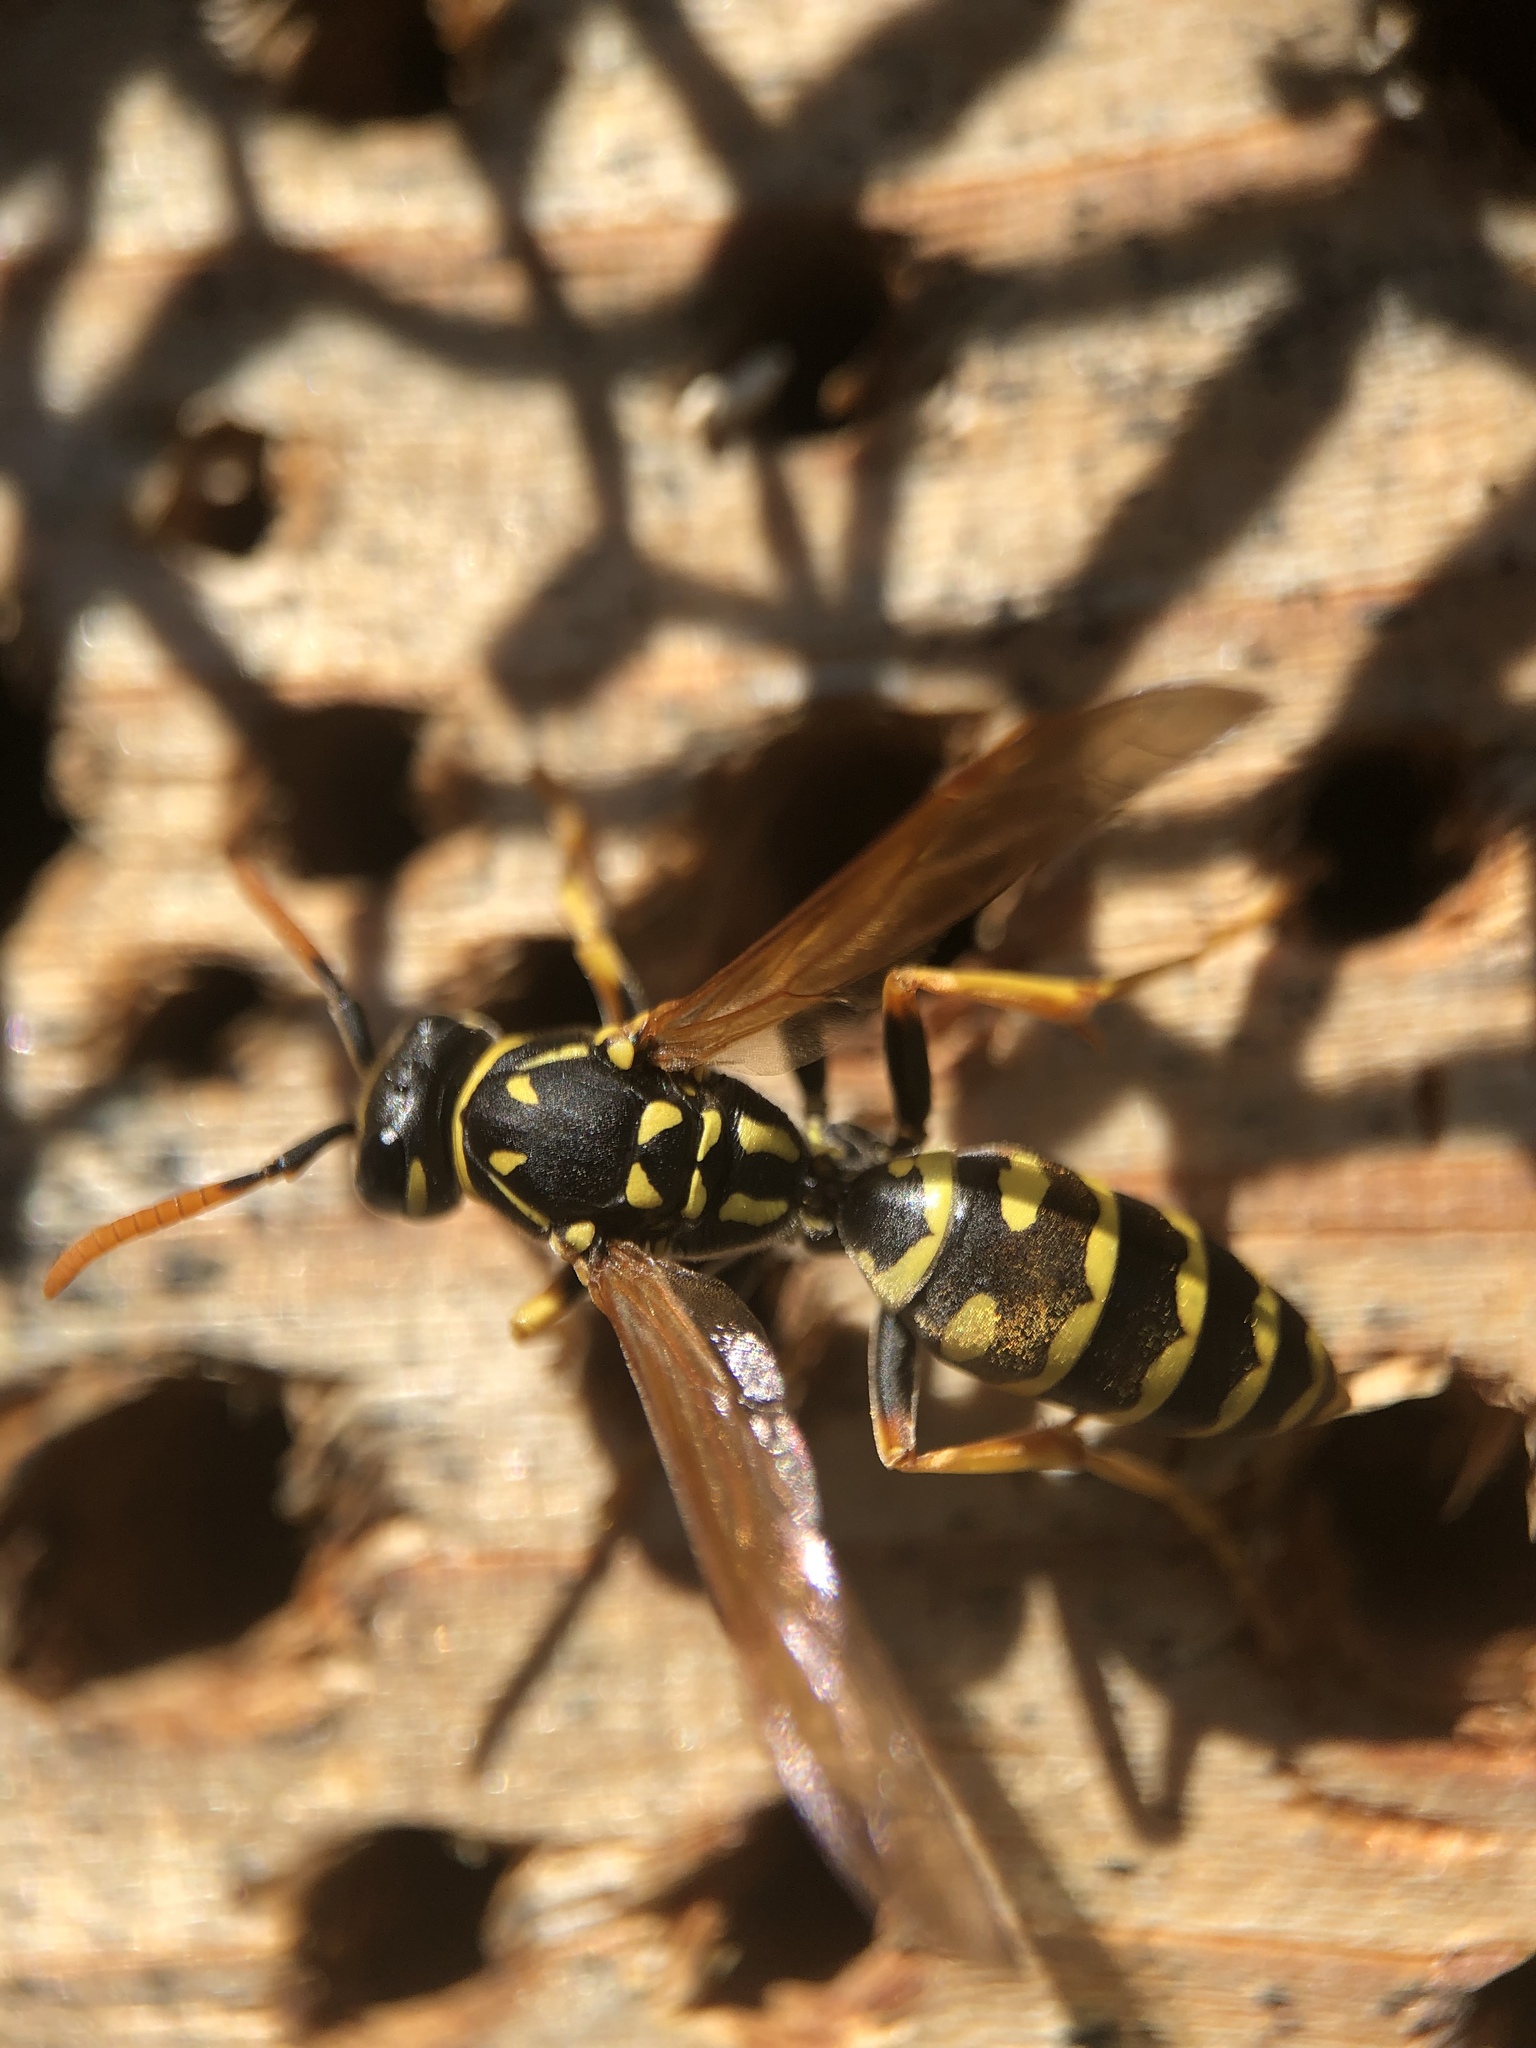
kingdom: Animalia
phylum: Arthropoda
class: Insecta
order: Hymenoptera
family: Eumenidae
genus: Polistes
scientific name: Polistes dominula
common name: Paper wasp
